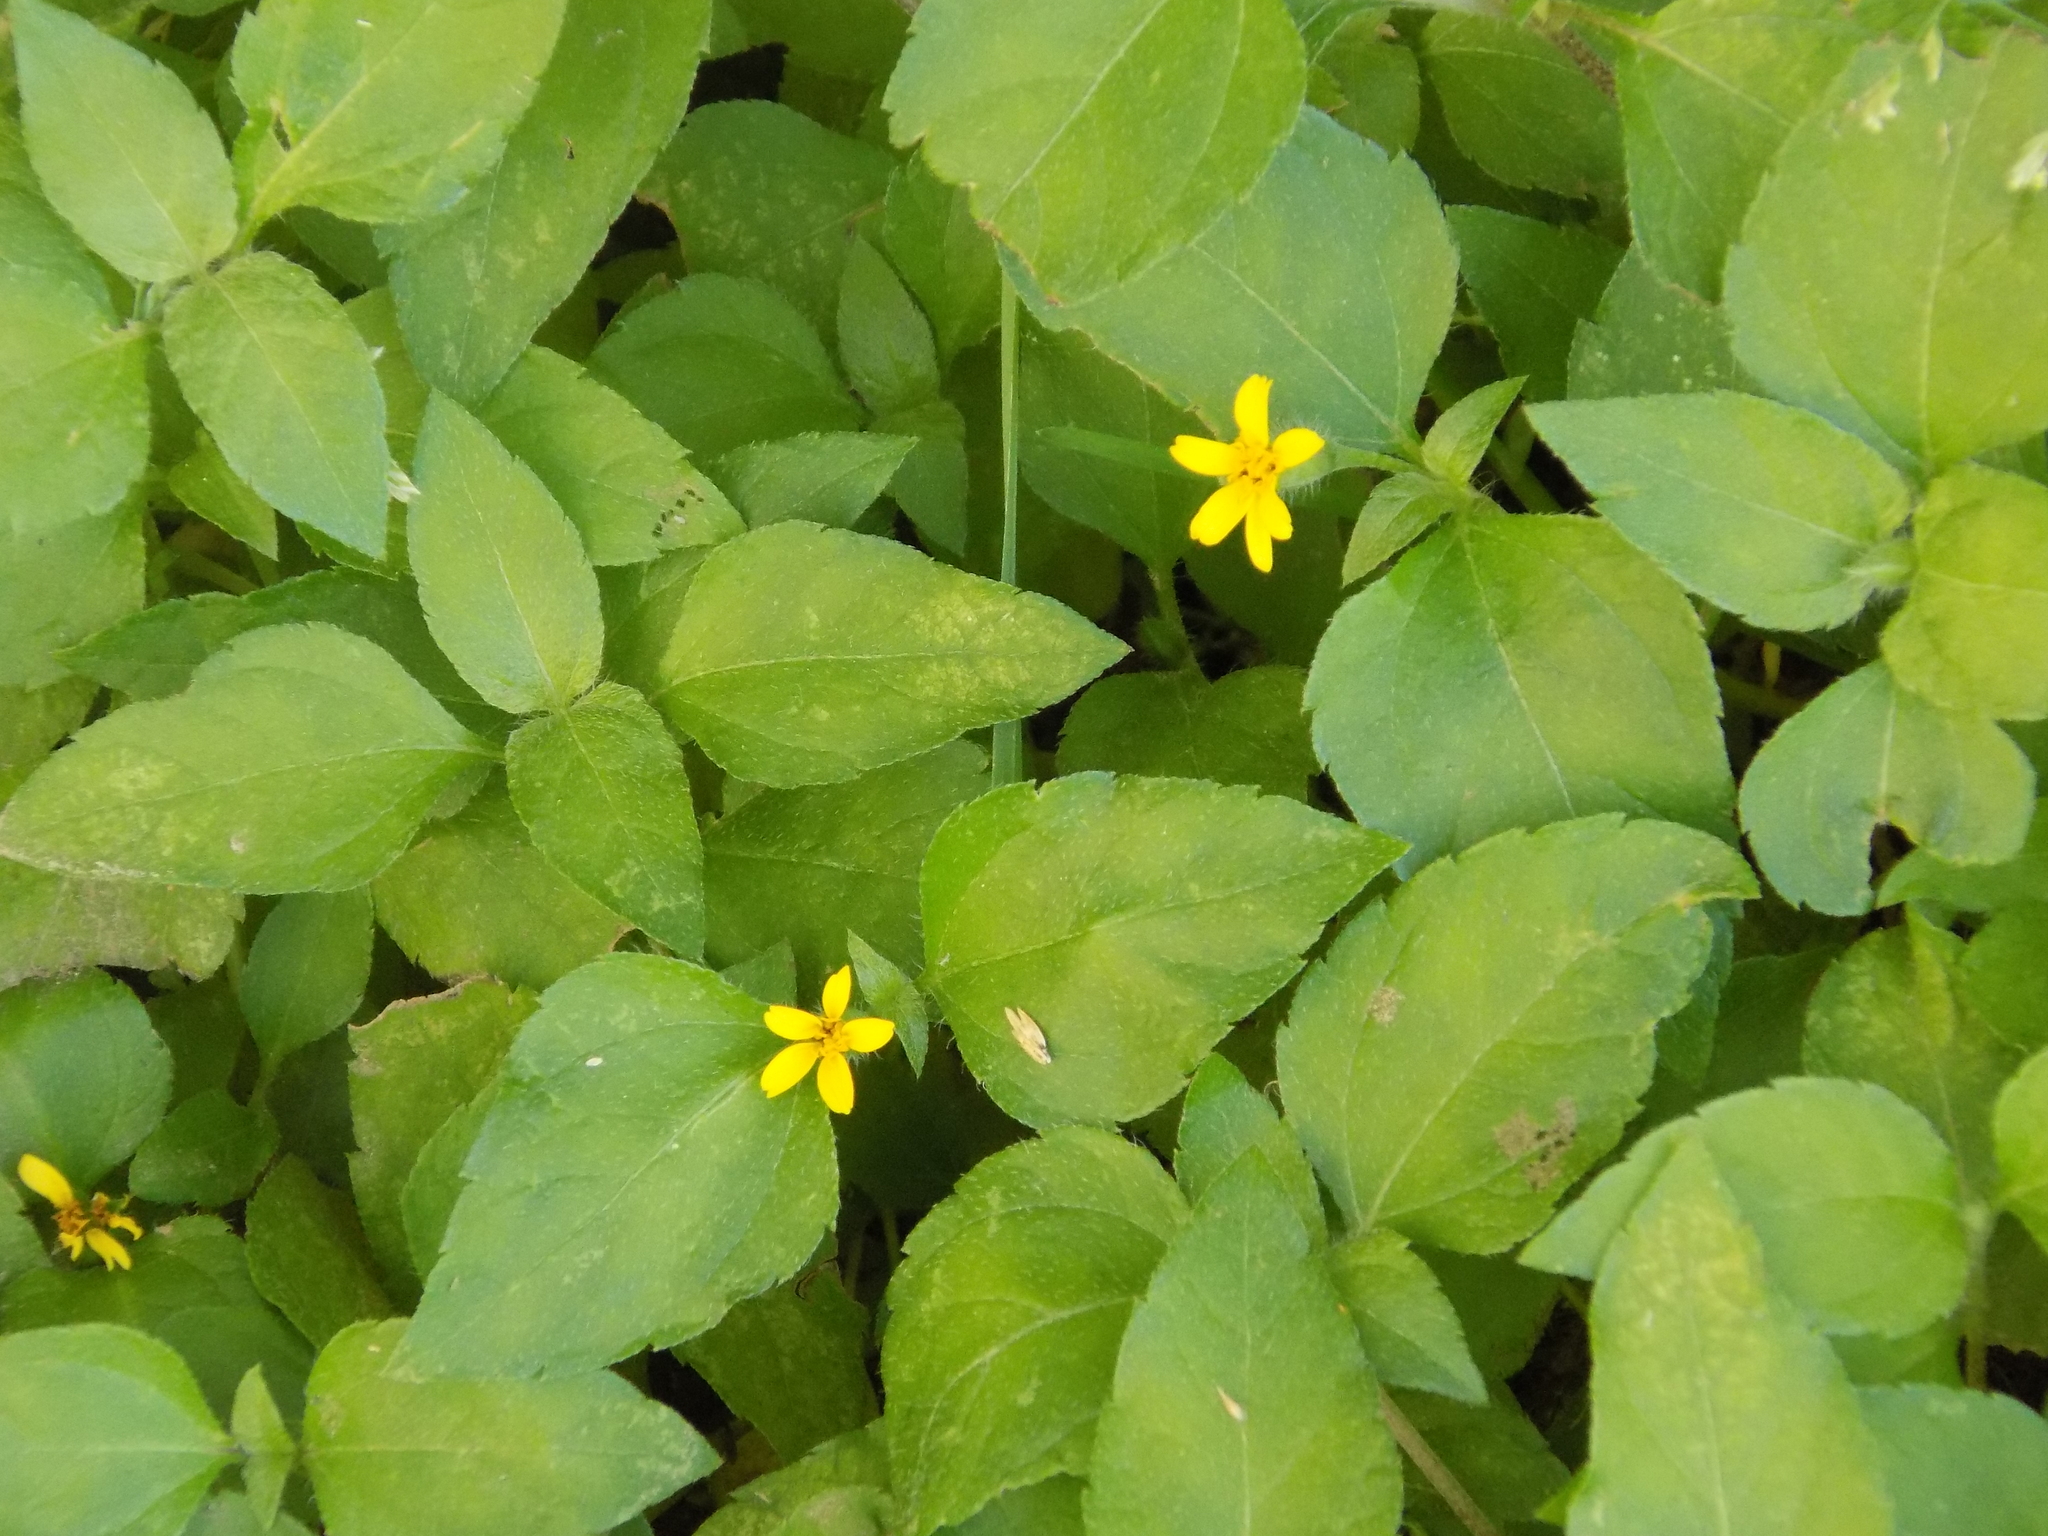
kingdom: Plantae
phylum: Tracheophyta
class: Magnoliopsida
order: Asterales
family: Asteraceae
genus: Calyptocarpus
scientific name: Calyptocarpus vialis
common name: Straggler daisy
